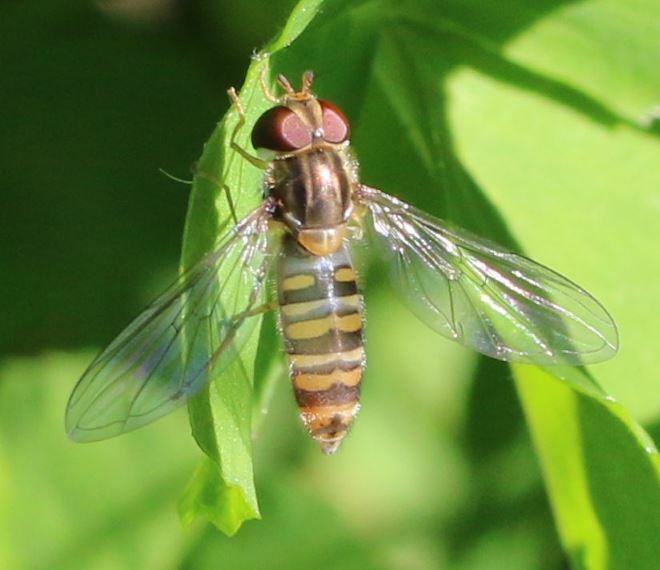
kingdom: Animalia
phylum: Arthropoda
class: Insecta
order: Diptera
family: Syrphidae
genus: Episyrphus
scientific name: Episyrphus balteatus
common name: Marmalade hoverfly
